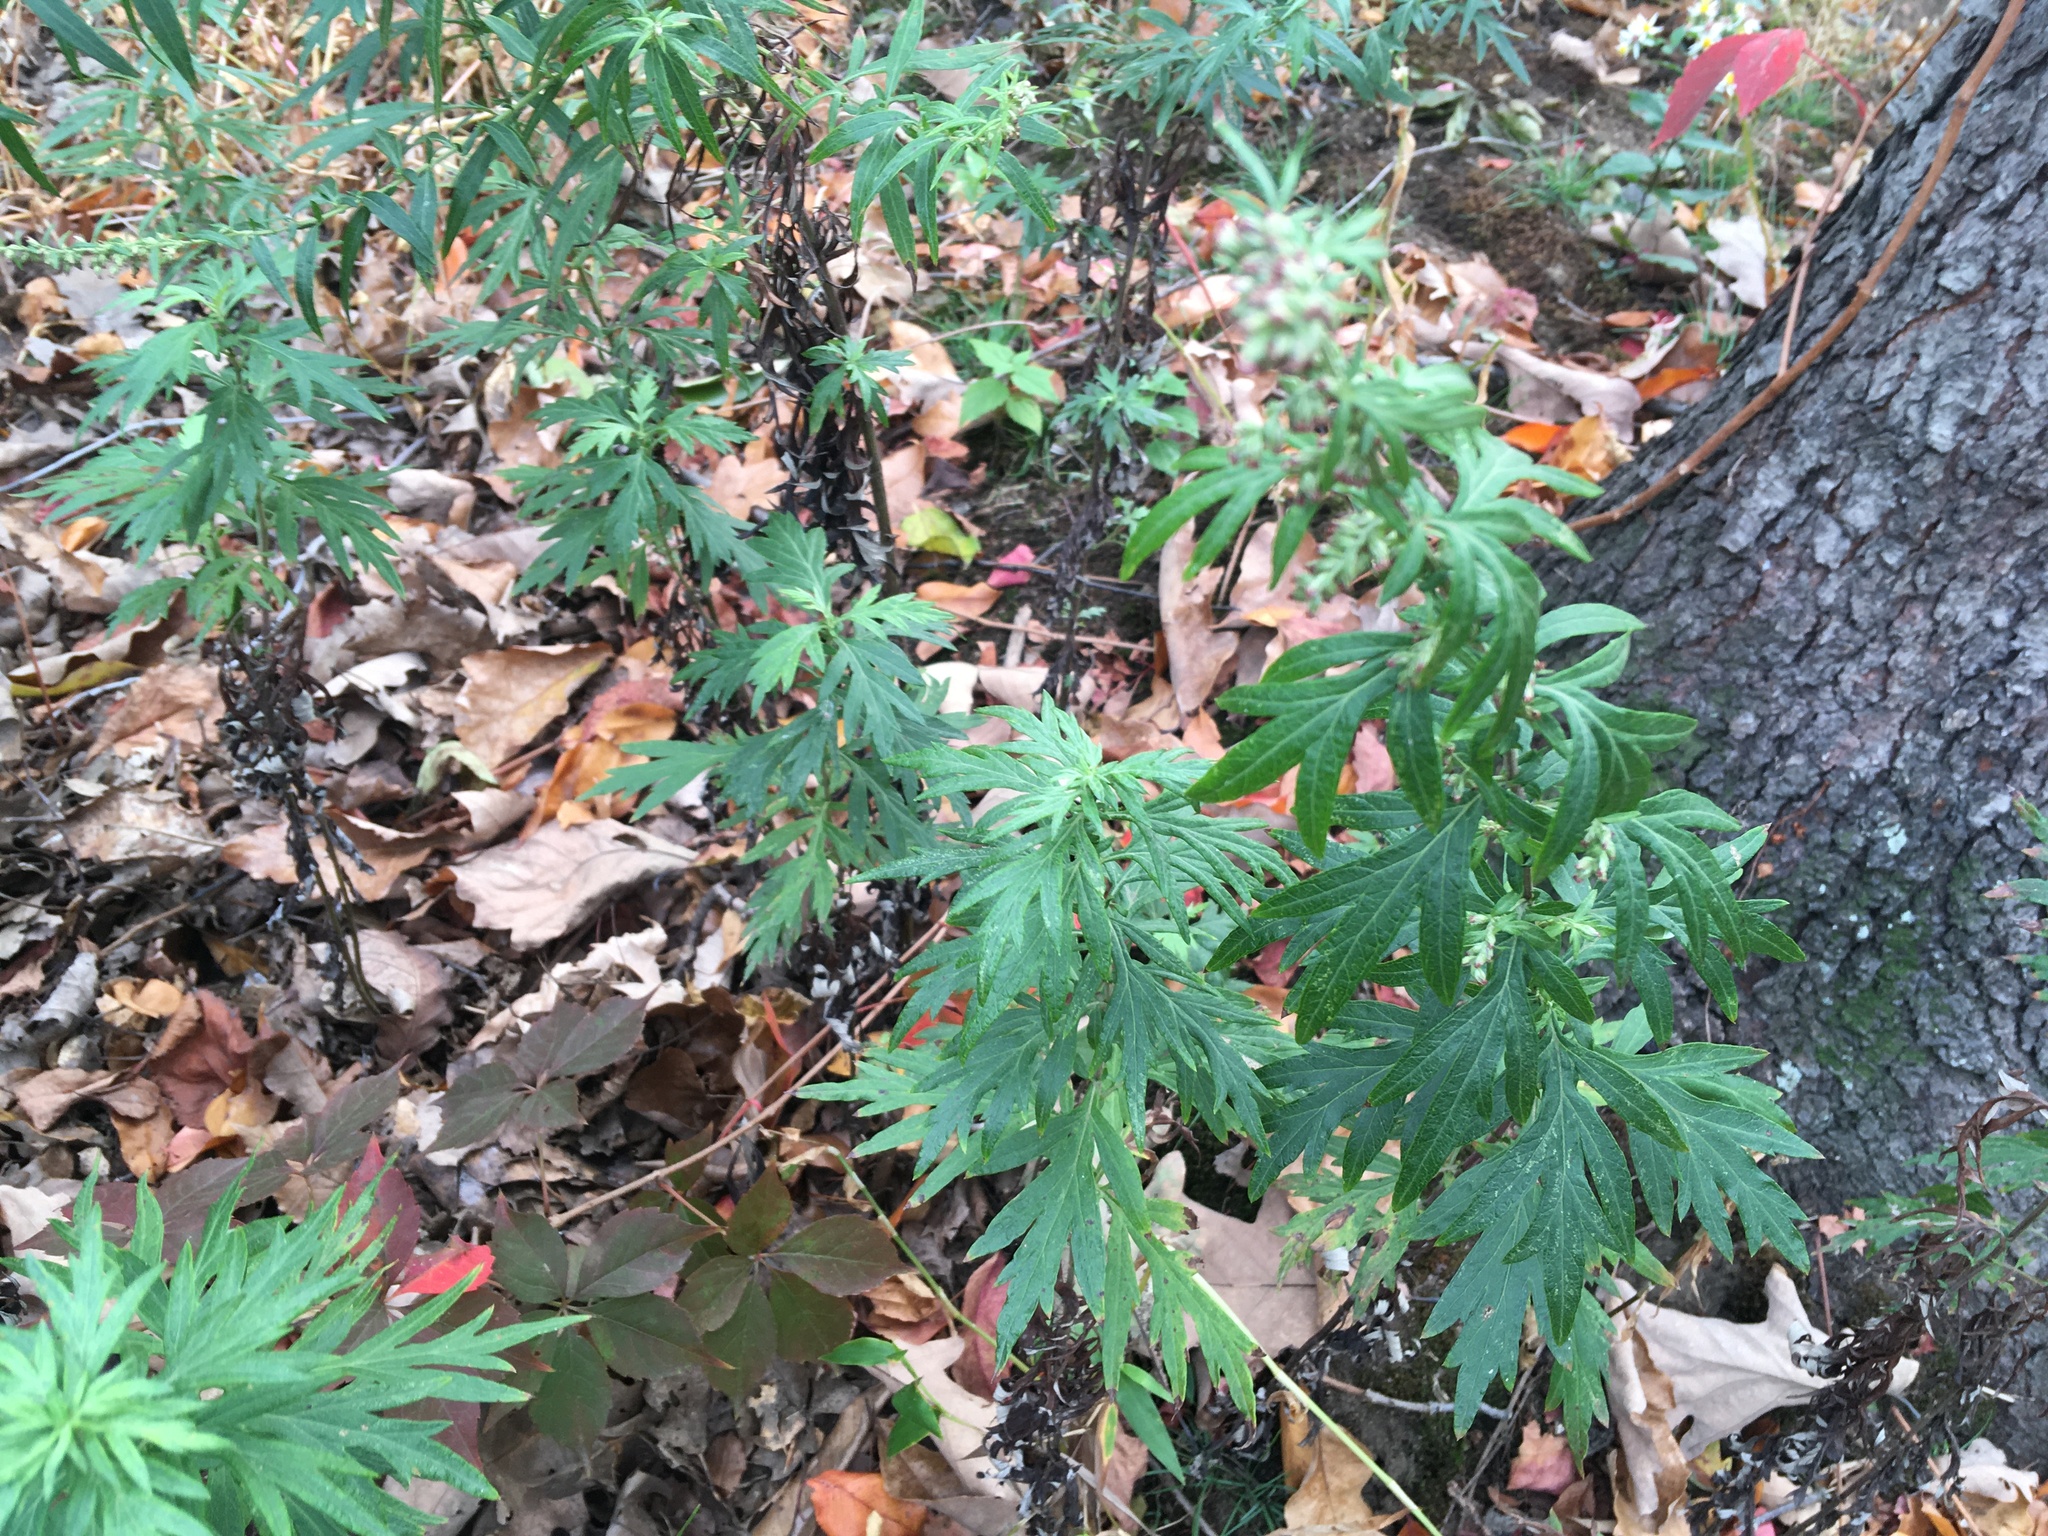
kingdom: Plantae
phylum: Tracheophyta
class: Magnoliopsida
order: Asterales
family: Asteraceae
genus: Artemisia
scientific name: Artemisia vulgaris
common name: Mugwort
